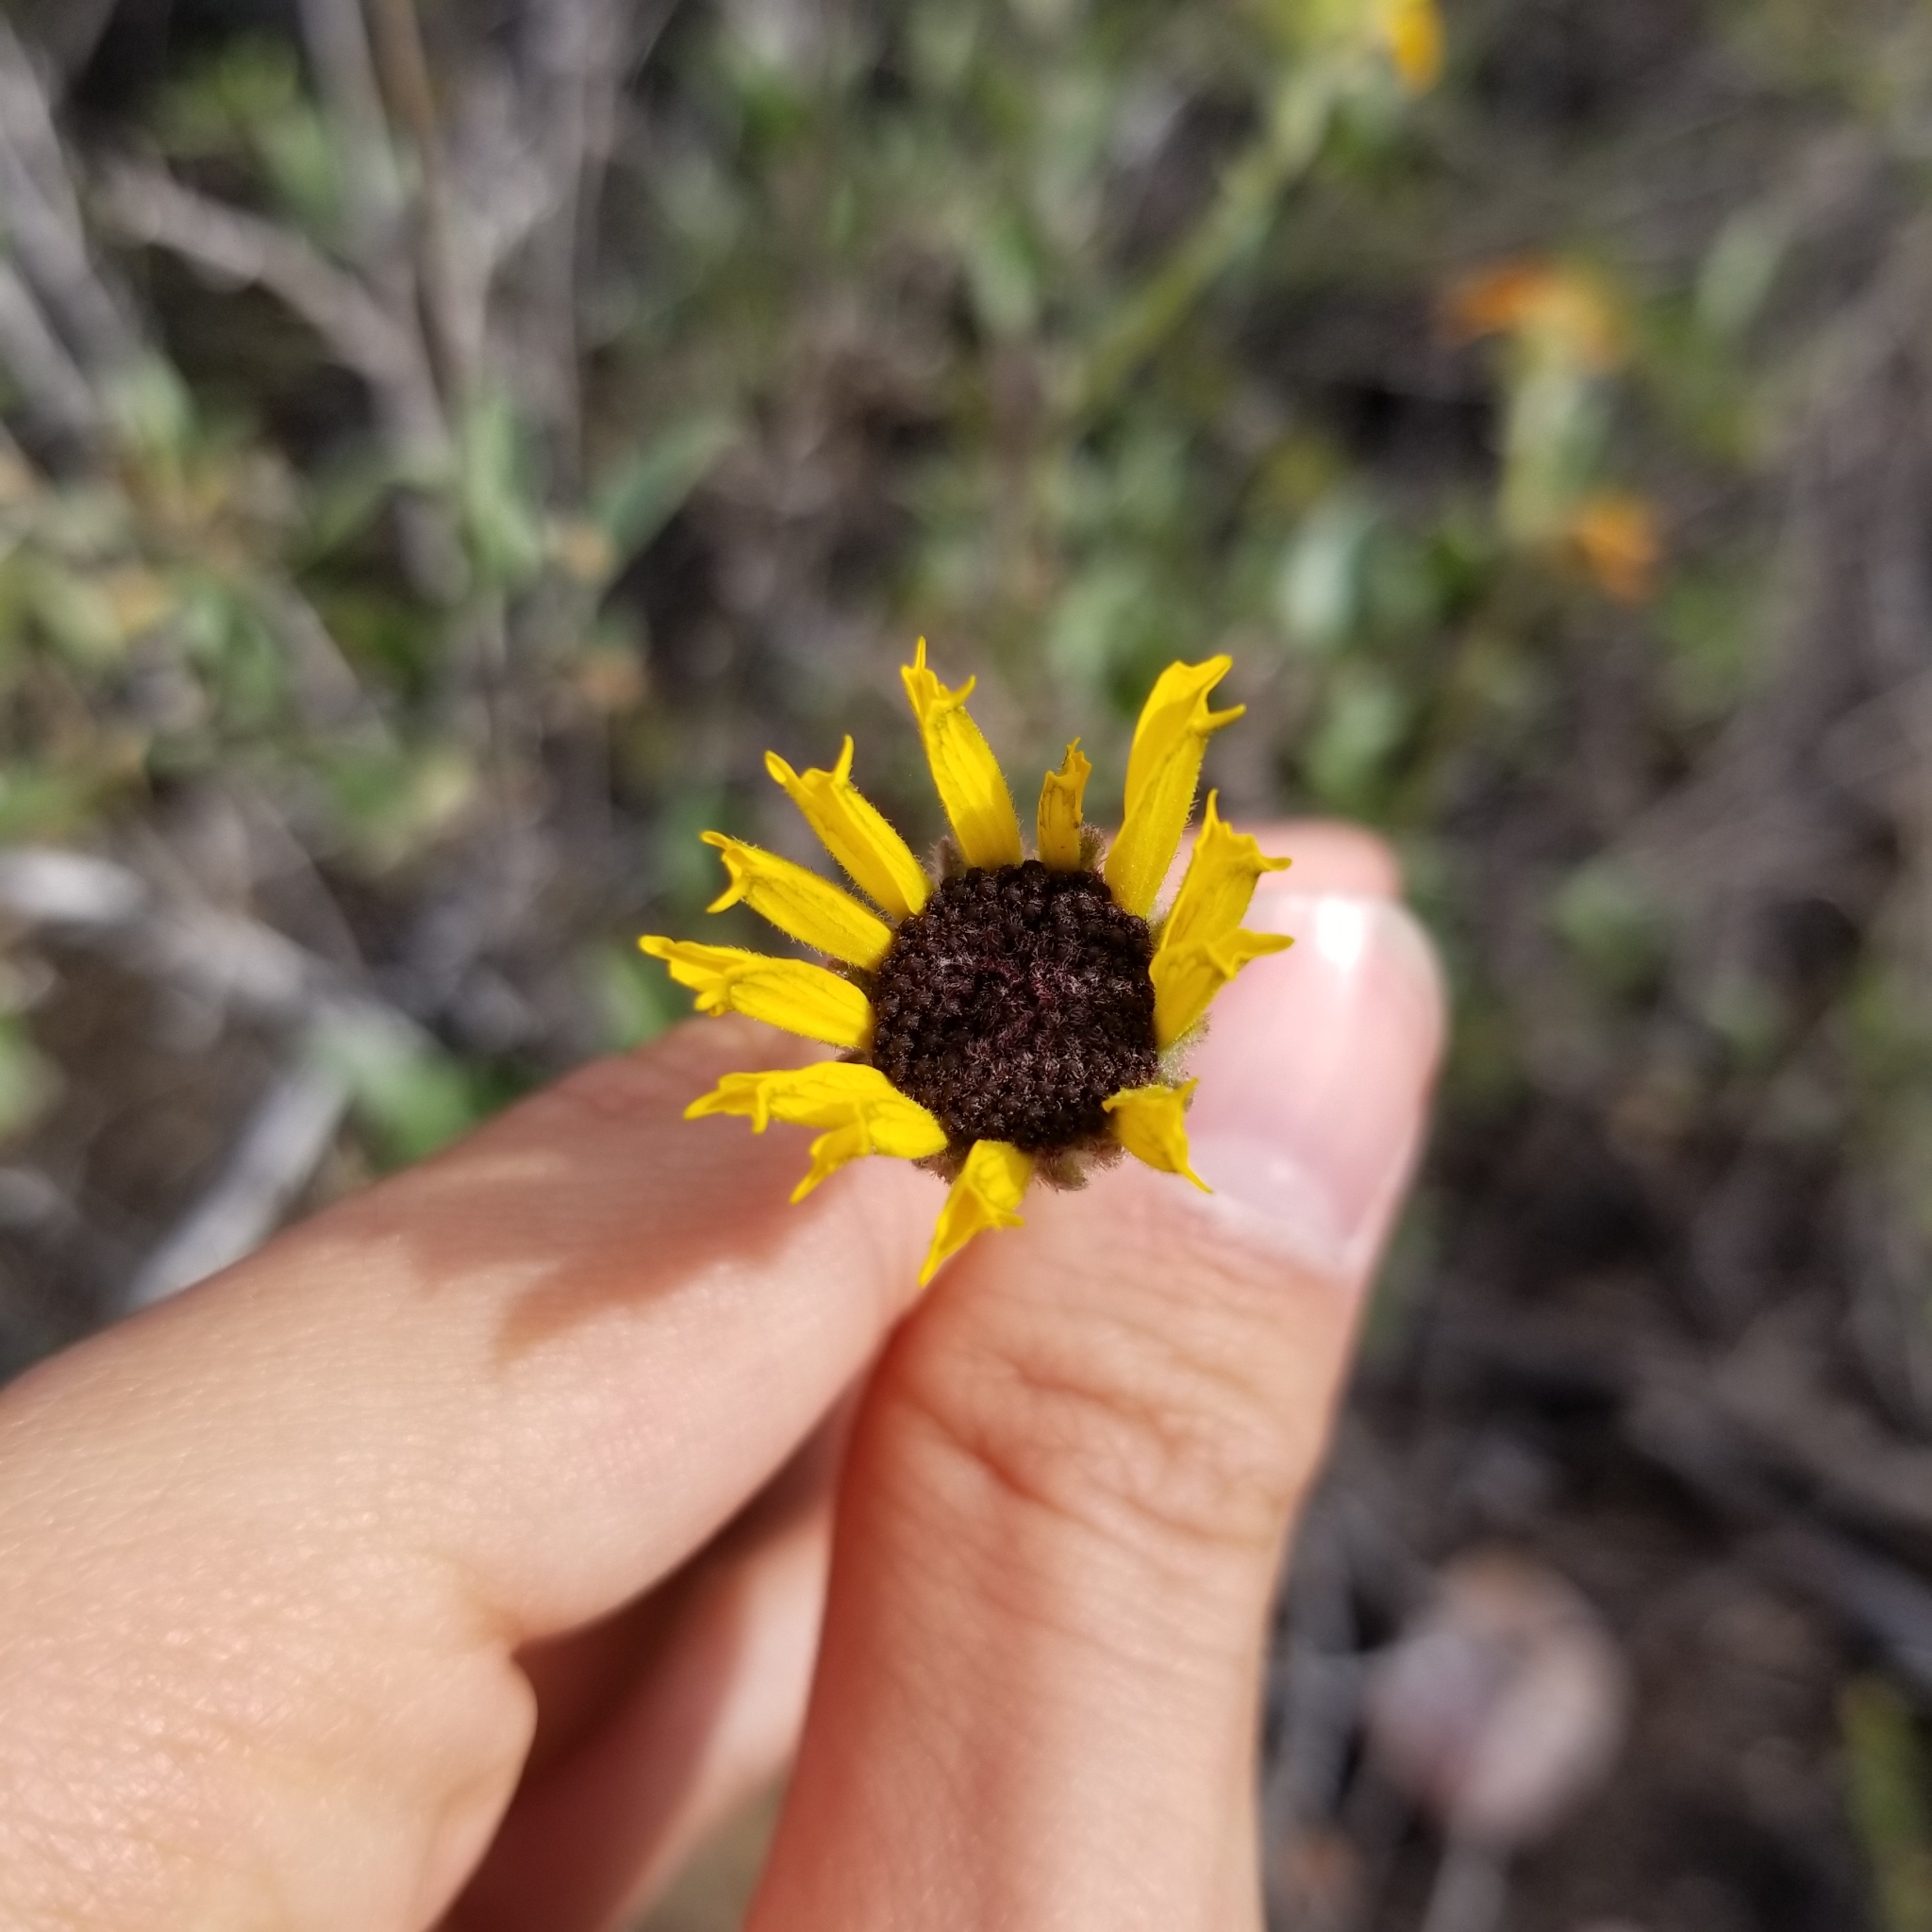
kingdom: Plantae
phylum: Tracheophyta
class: Magnoliopsida
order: Asterales
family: Asteraceae
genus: Encelia
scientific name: Encelia californica
